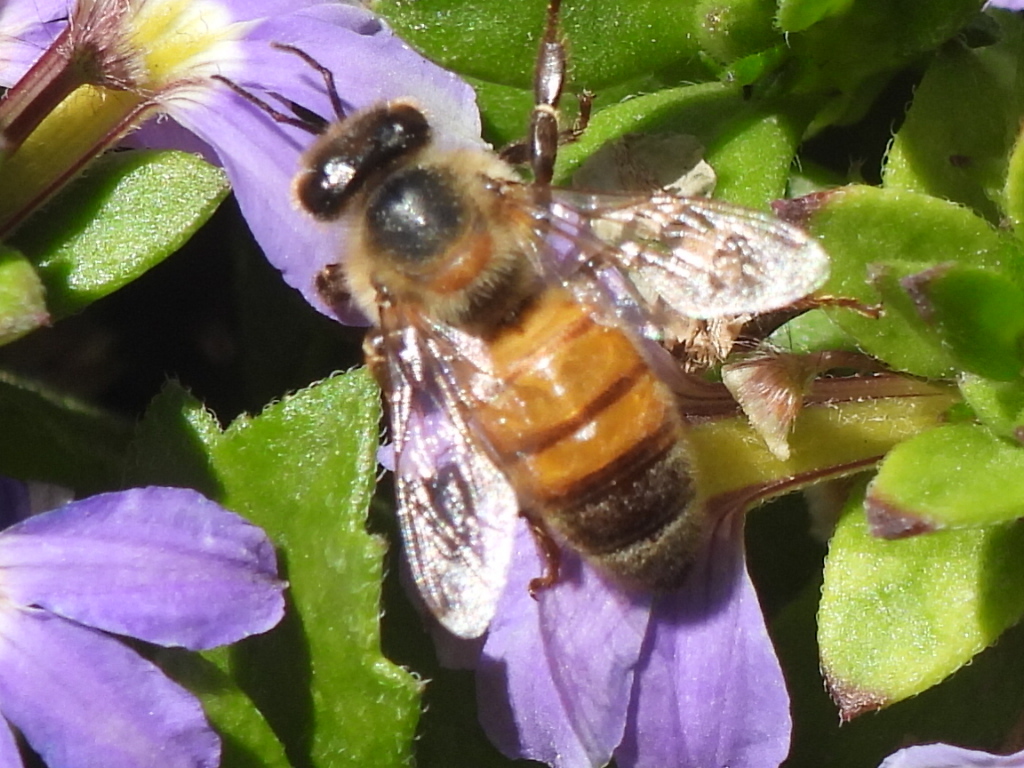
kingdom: Animalia
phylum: Arthropoda
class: Insecta
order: Hymenoptera
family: Apidae
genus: Apis
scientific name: Apis mellifera
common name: Honey bee
